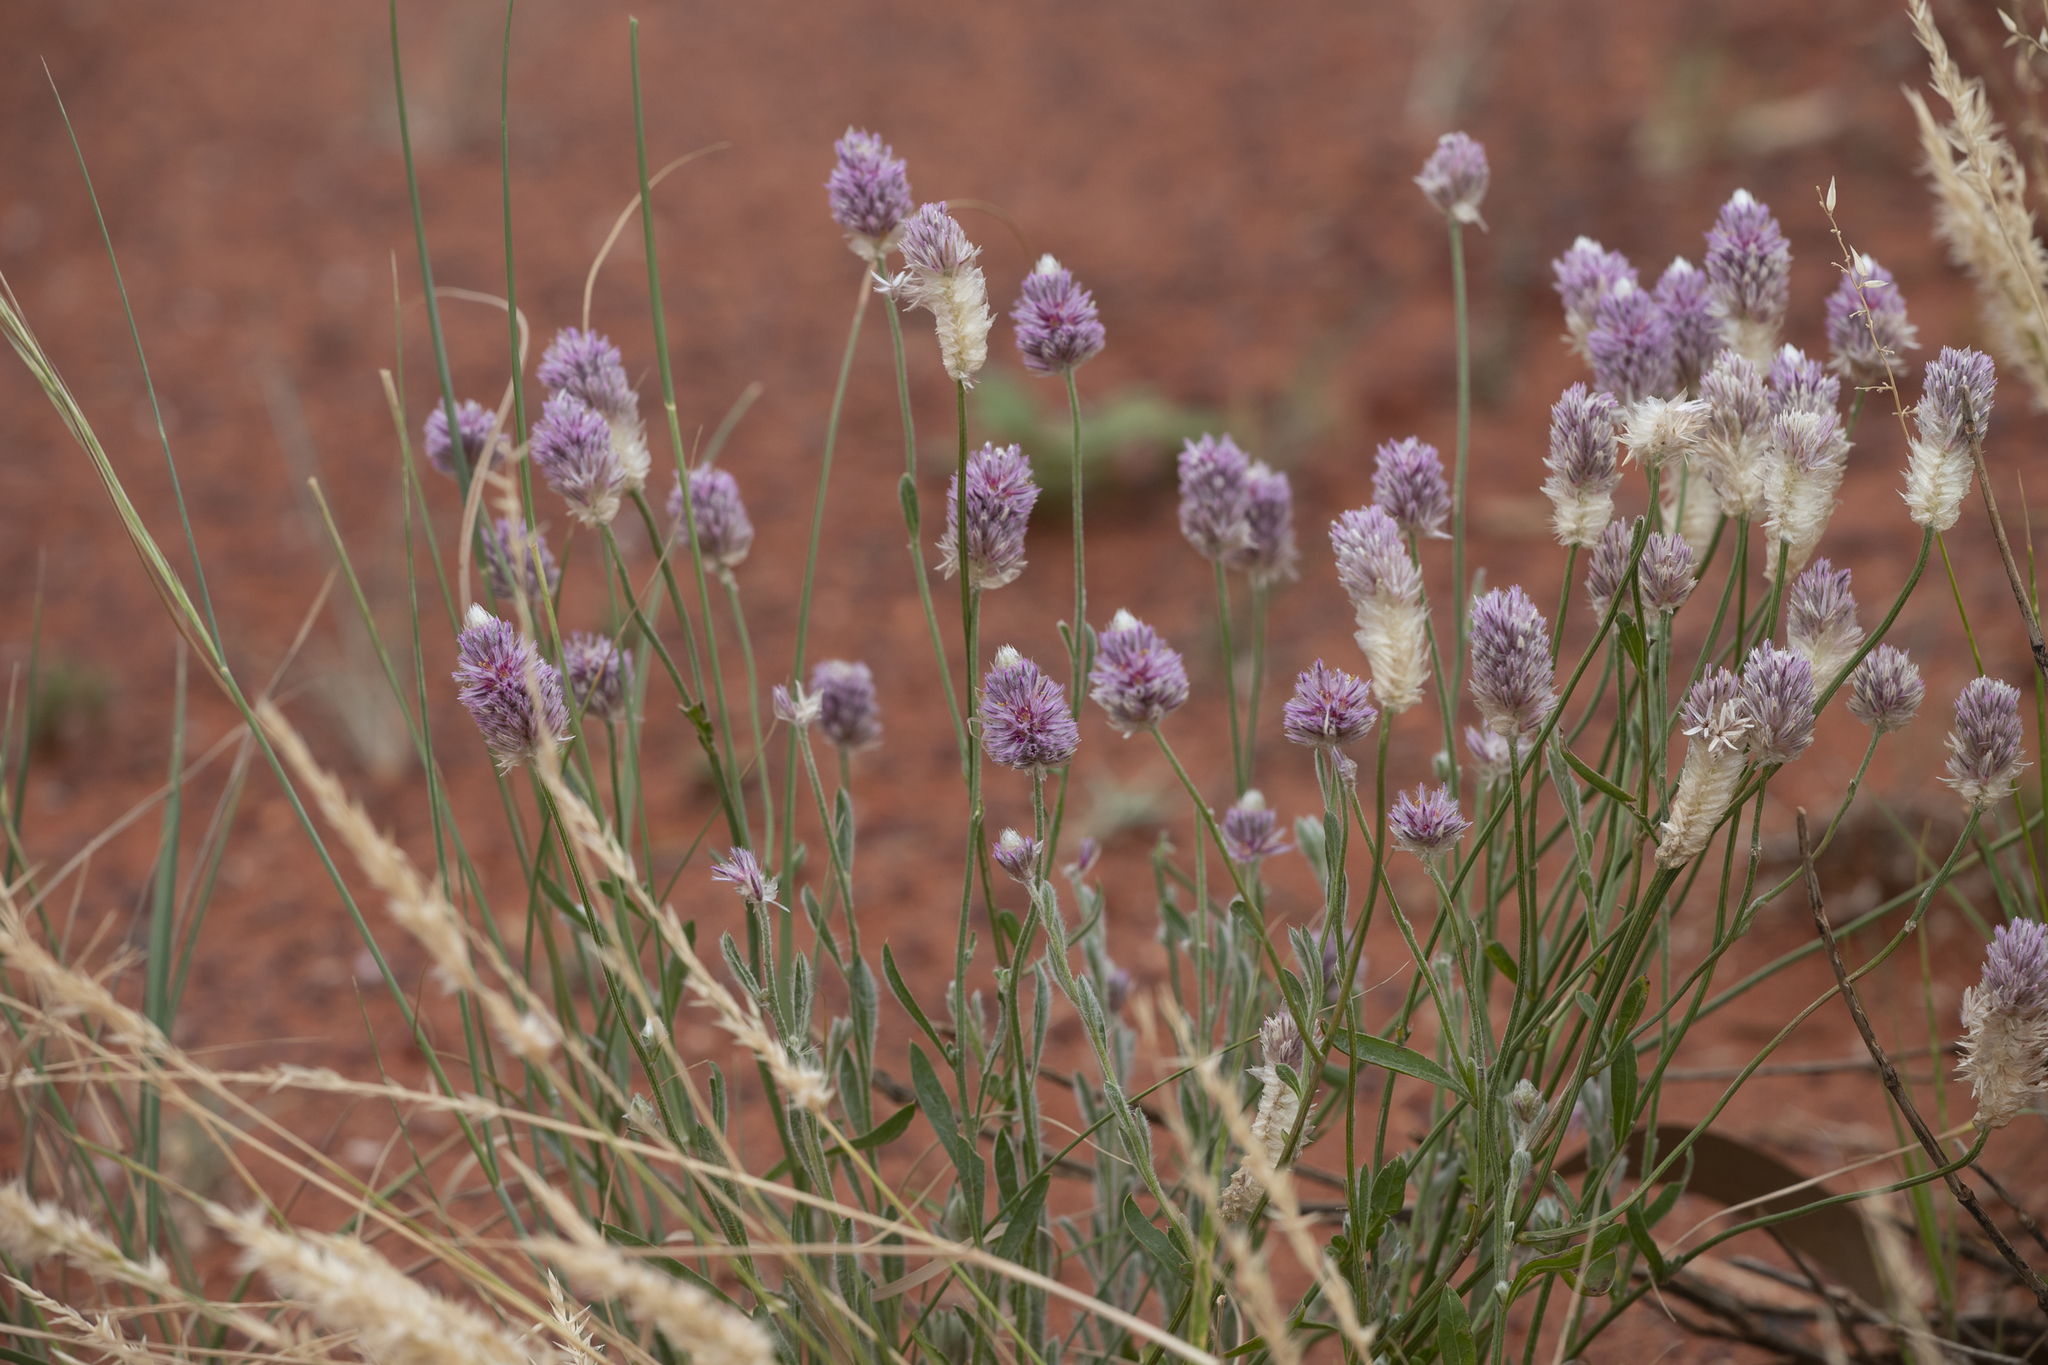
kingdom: Plantae
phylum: Tracheophyta
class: Magnoliopsida
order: Caryophyllales
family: Amaranthaceae
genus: Ptilotus
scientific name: Ptilotus helipteroides
